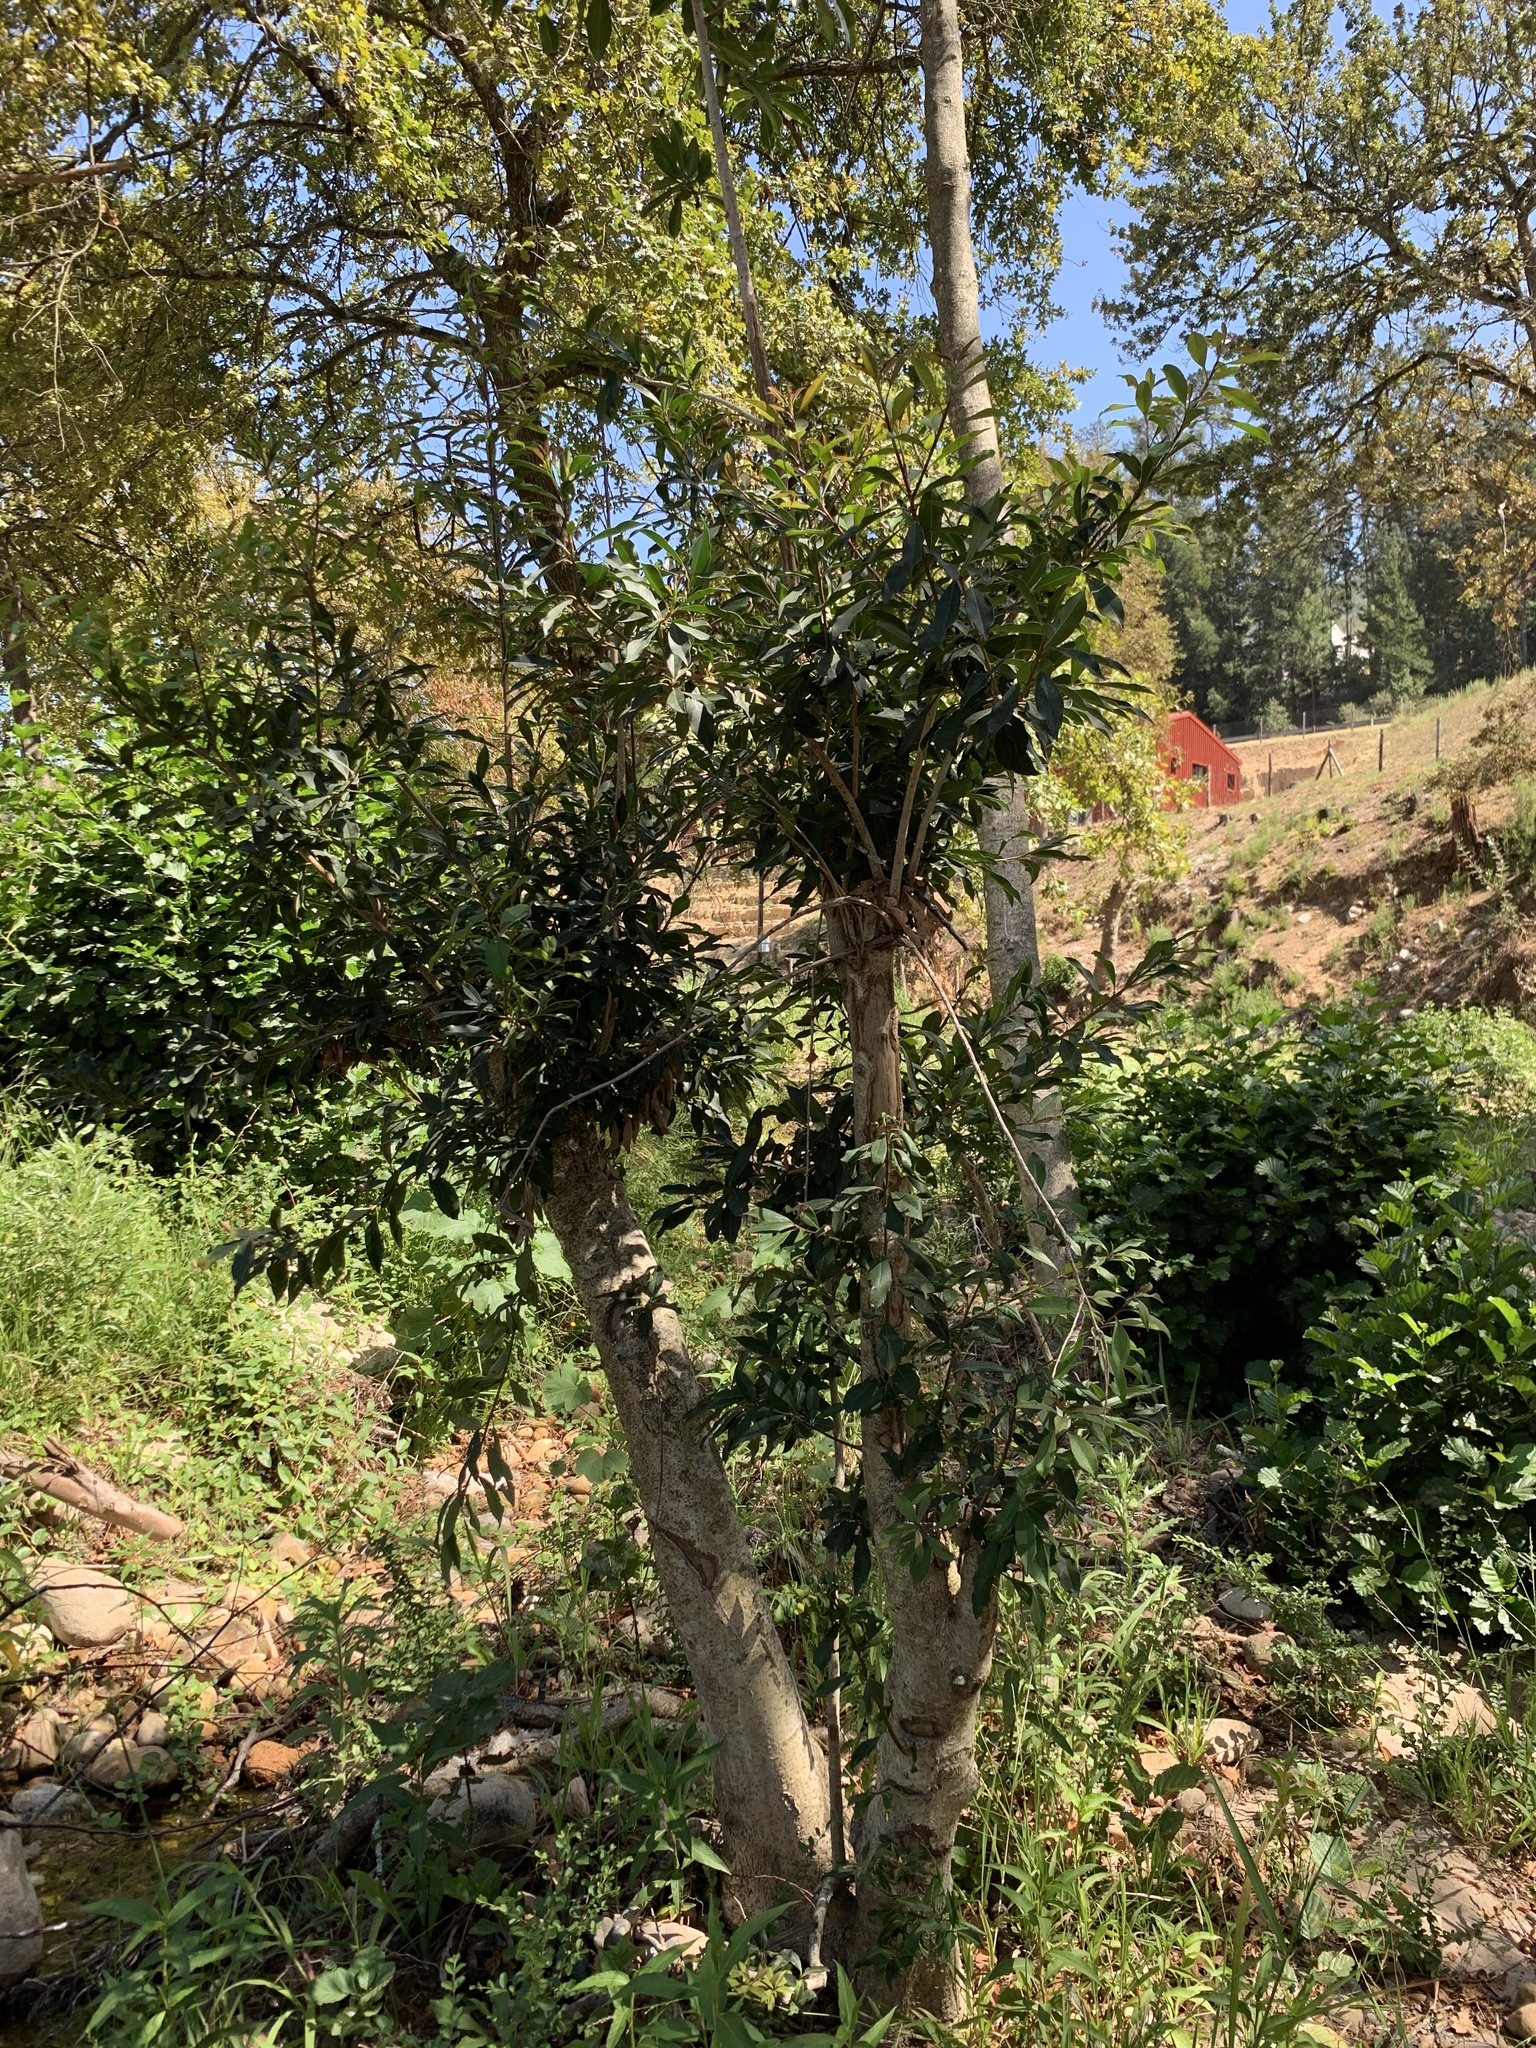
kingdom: Plantae
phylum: Tracheophyta
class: Magnoliopsida
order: Aquifoliales
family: Aquifoliaceae
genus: Ilex
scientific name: Ilex mitis
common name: African holly
